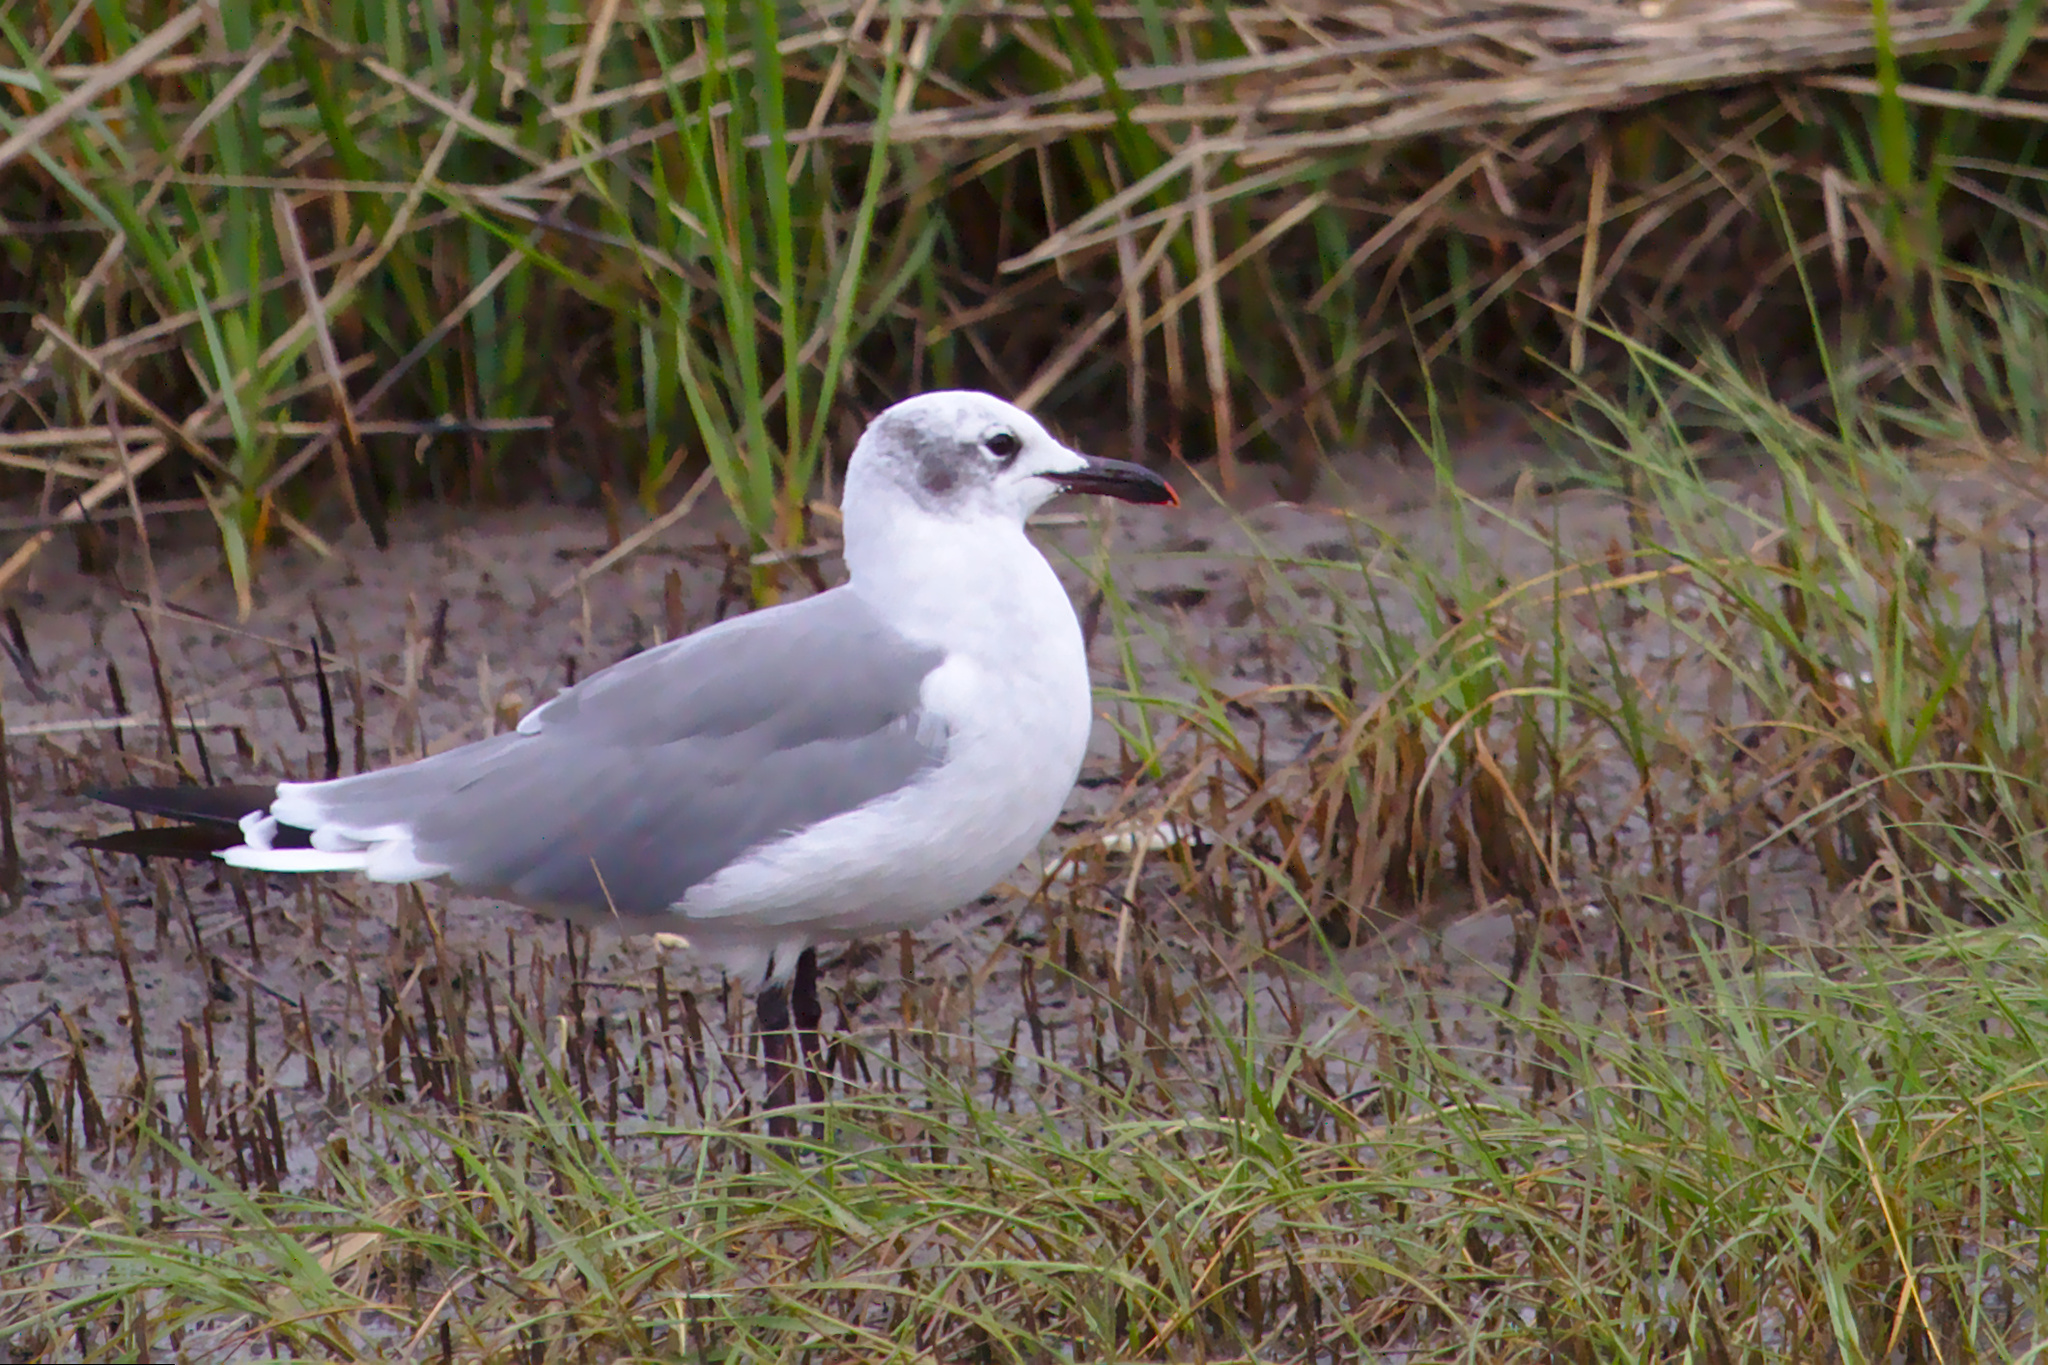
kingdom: Animalia
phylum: Chordata
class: Aves
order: Charadriiformes
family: Laridae
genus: Leucophaeus
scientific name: Leucophaeus atricilla
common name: Laughing gull
